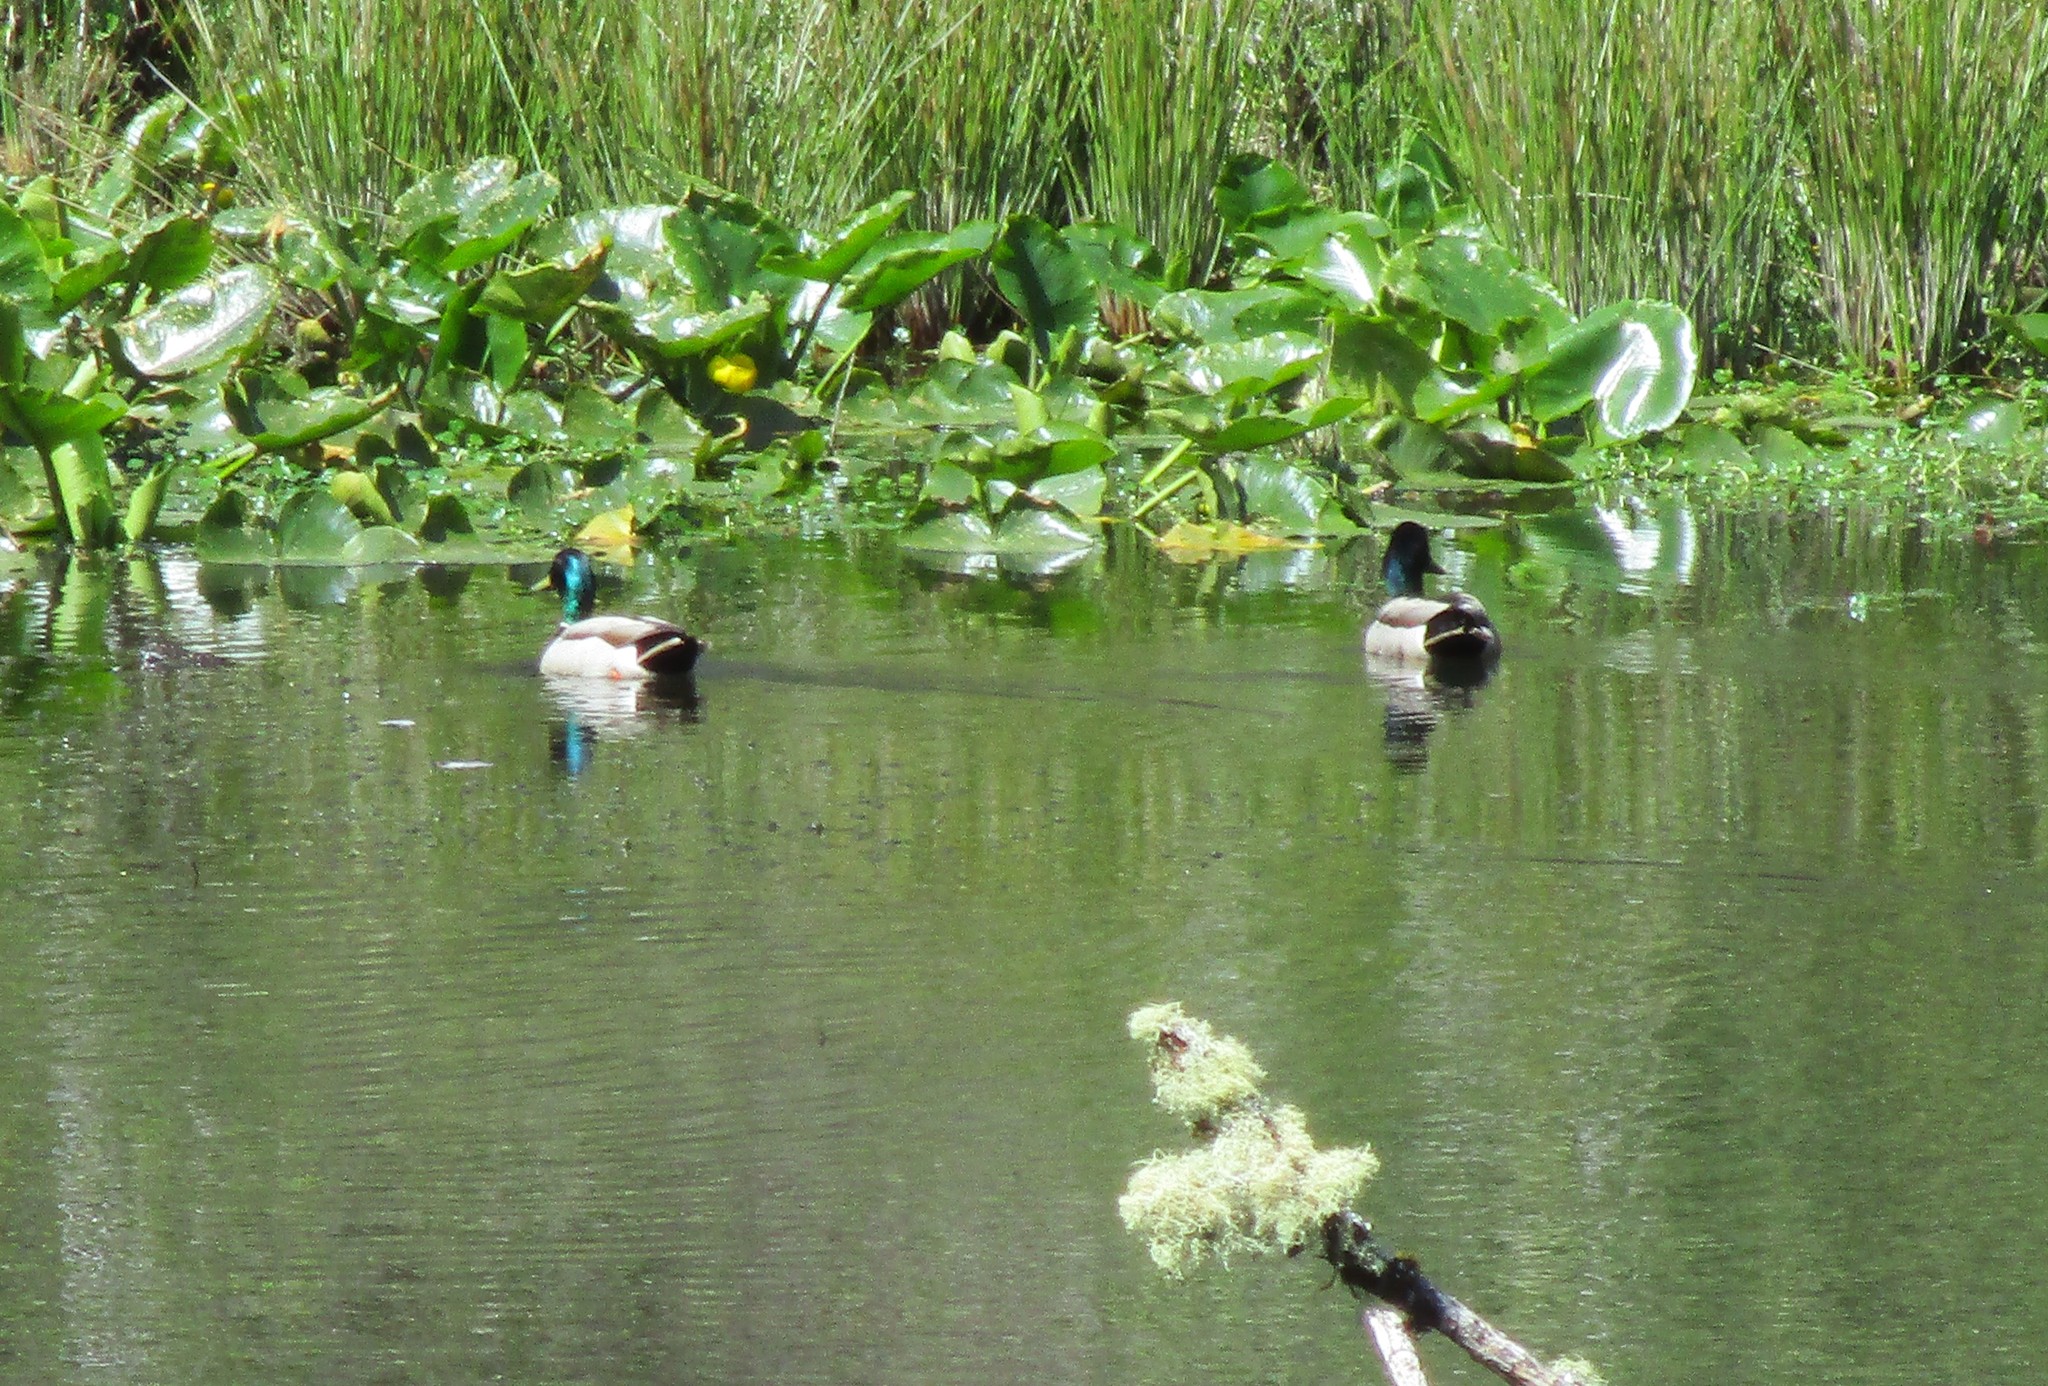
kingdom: Animalia
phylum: Chordata
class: Aves
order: Anseriformes
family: Anatidae
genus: Anas
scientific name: Anas platyrhynchos
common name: Mallard
